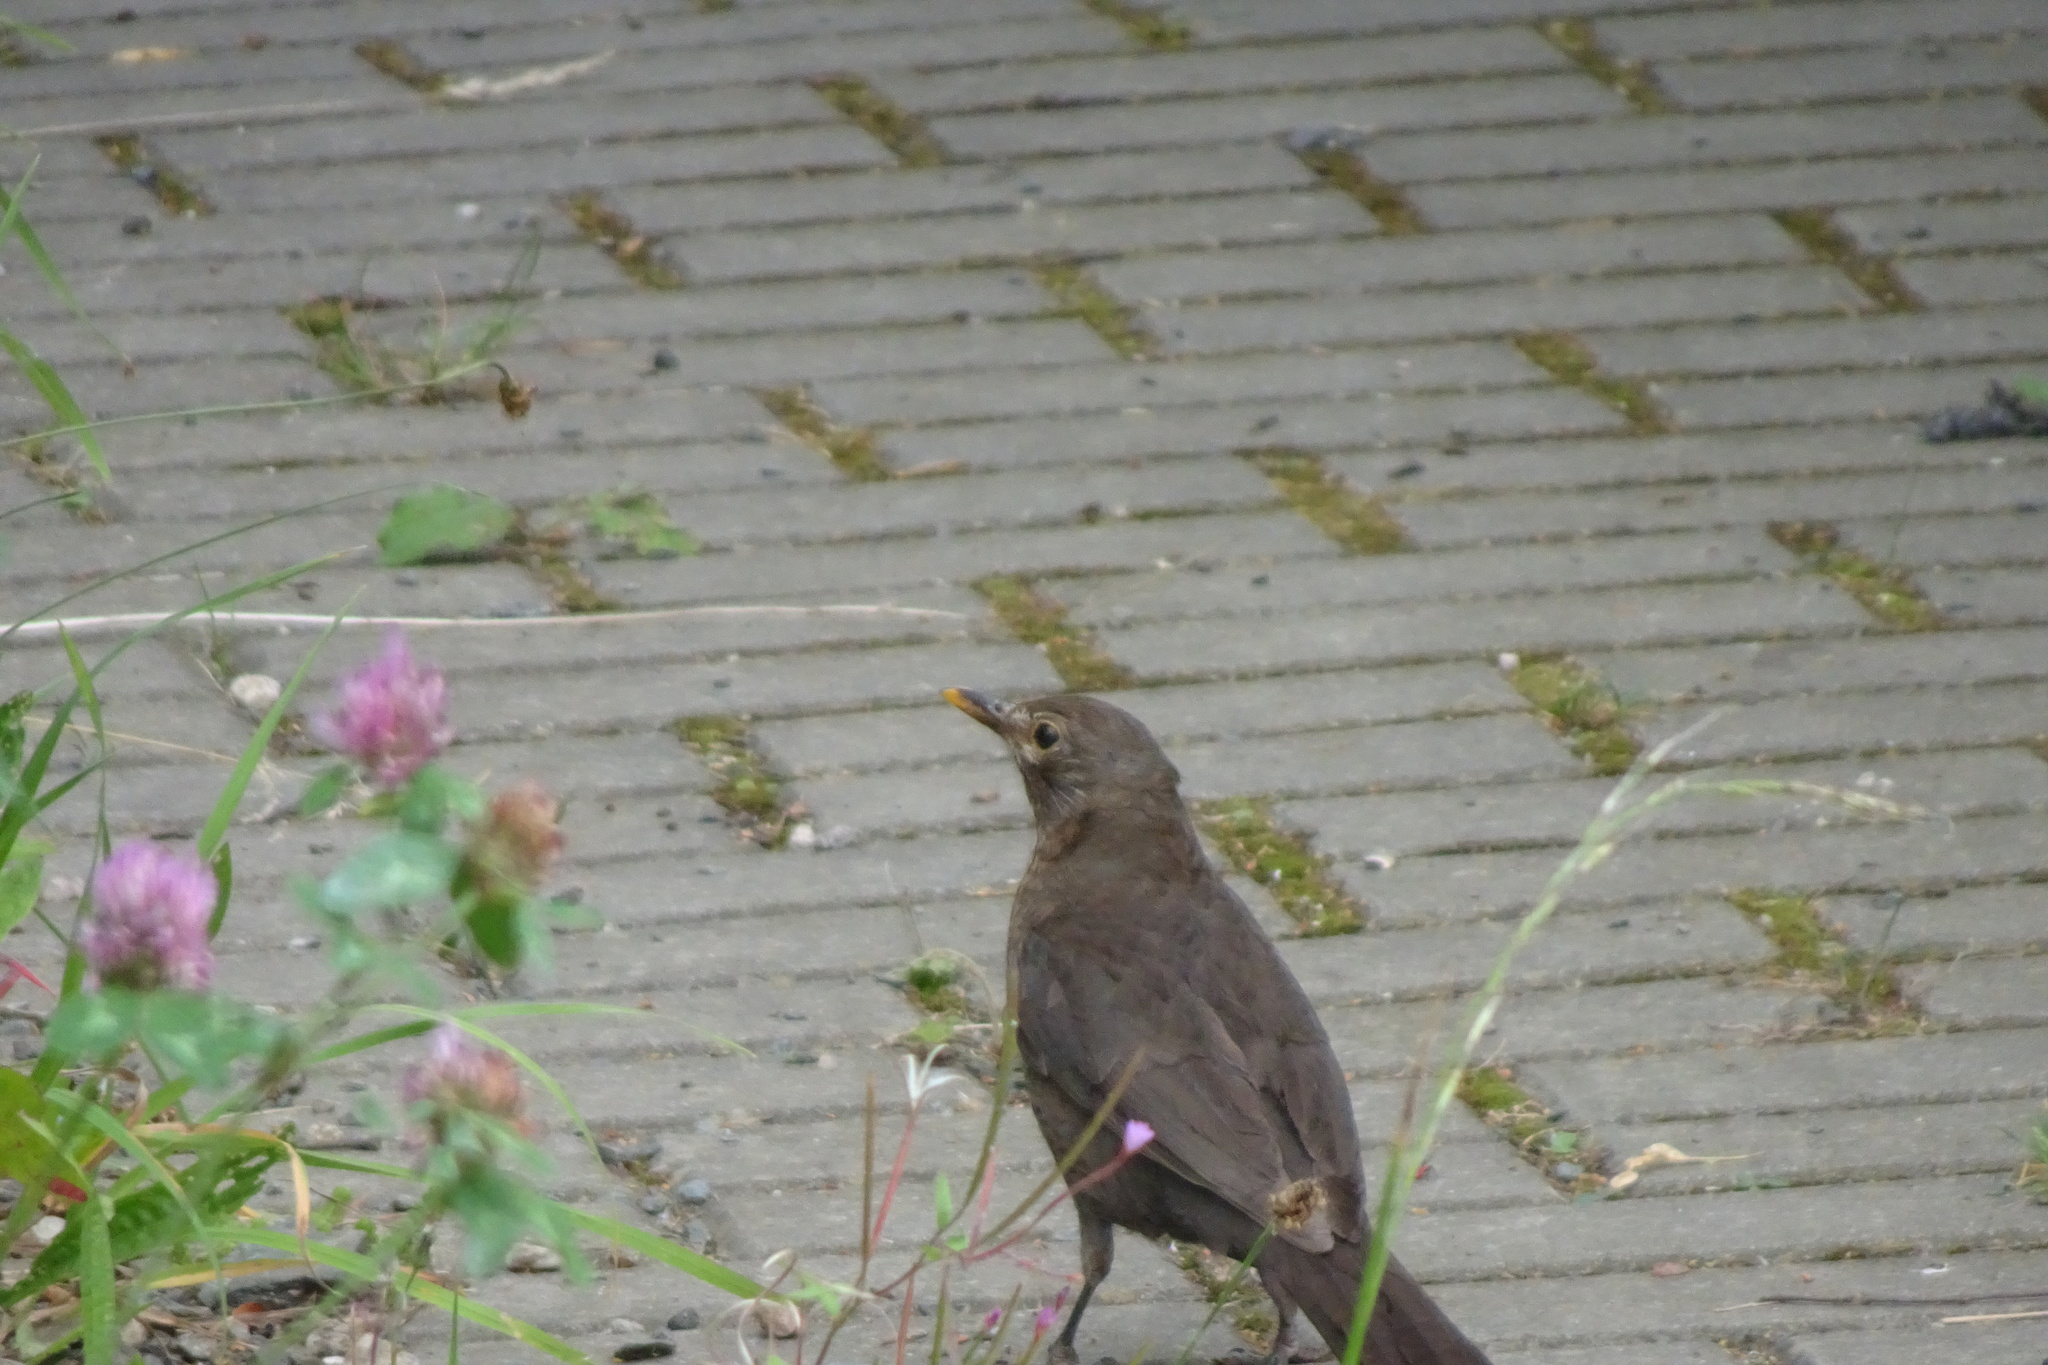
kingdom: Animalia
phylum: Chordata
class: Aves
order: Passeriformes
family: Turdidae
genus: Turdus
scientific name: Turdus merula
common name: Common blackbird
